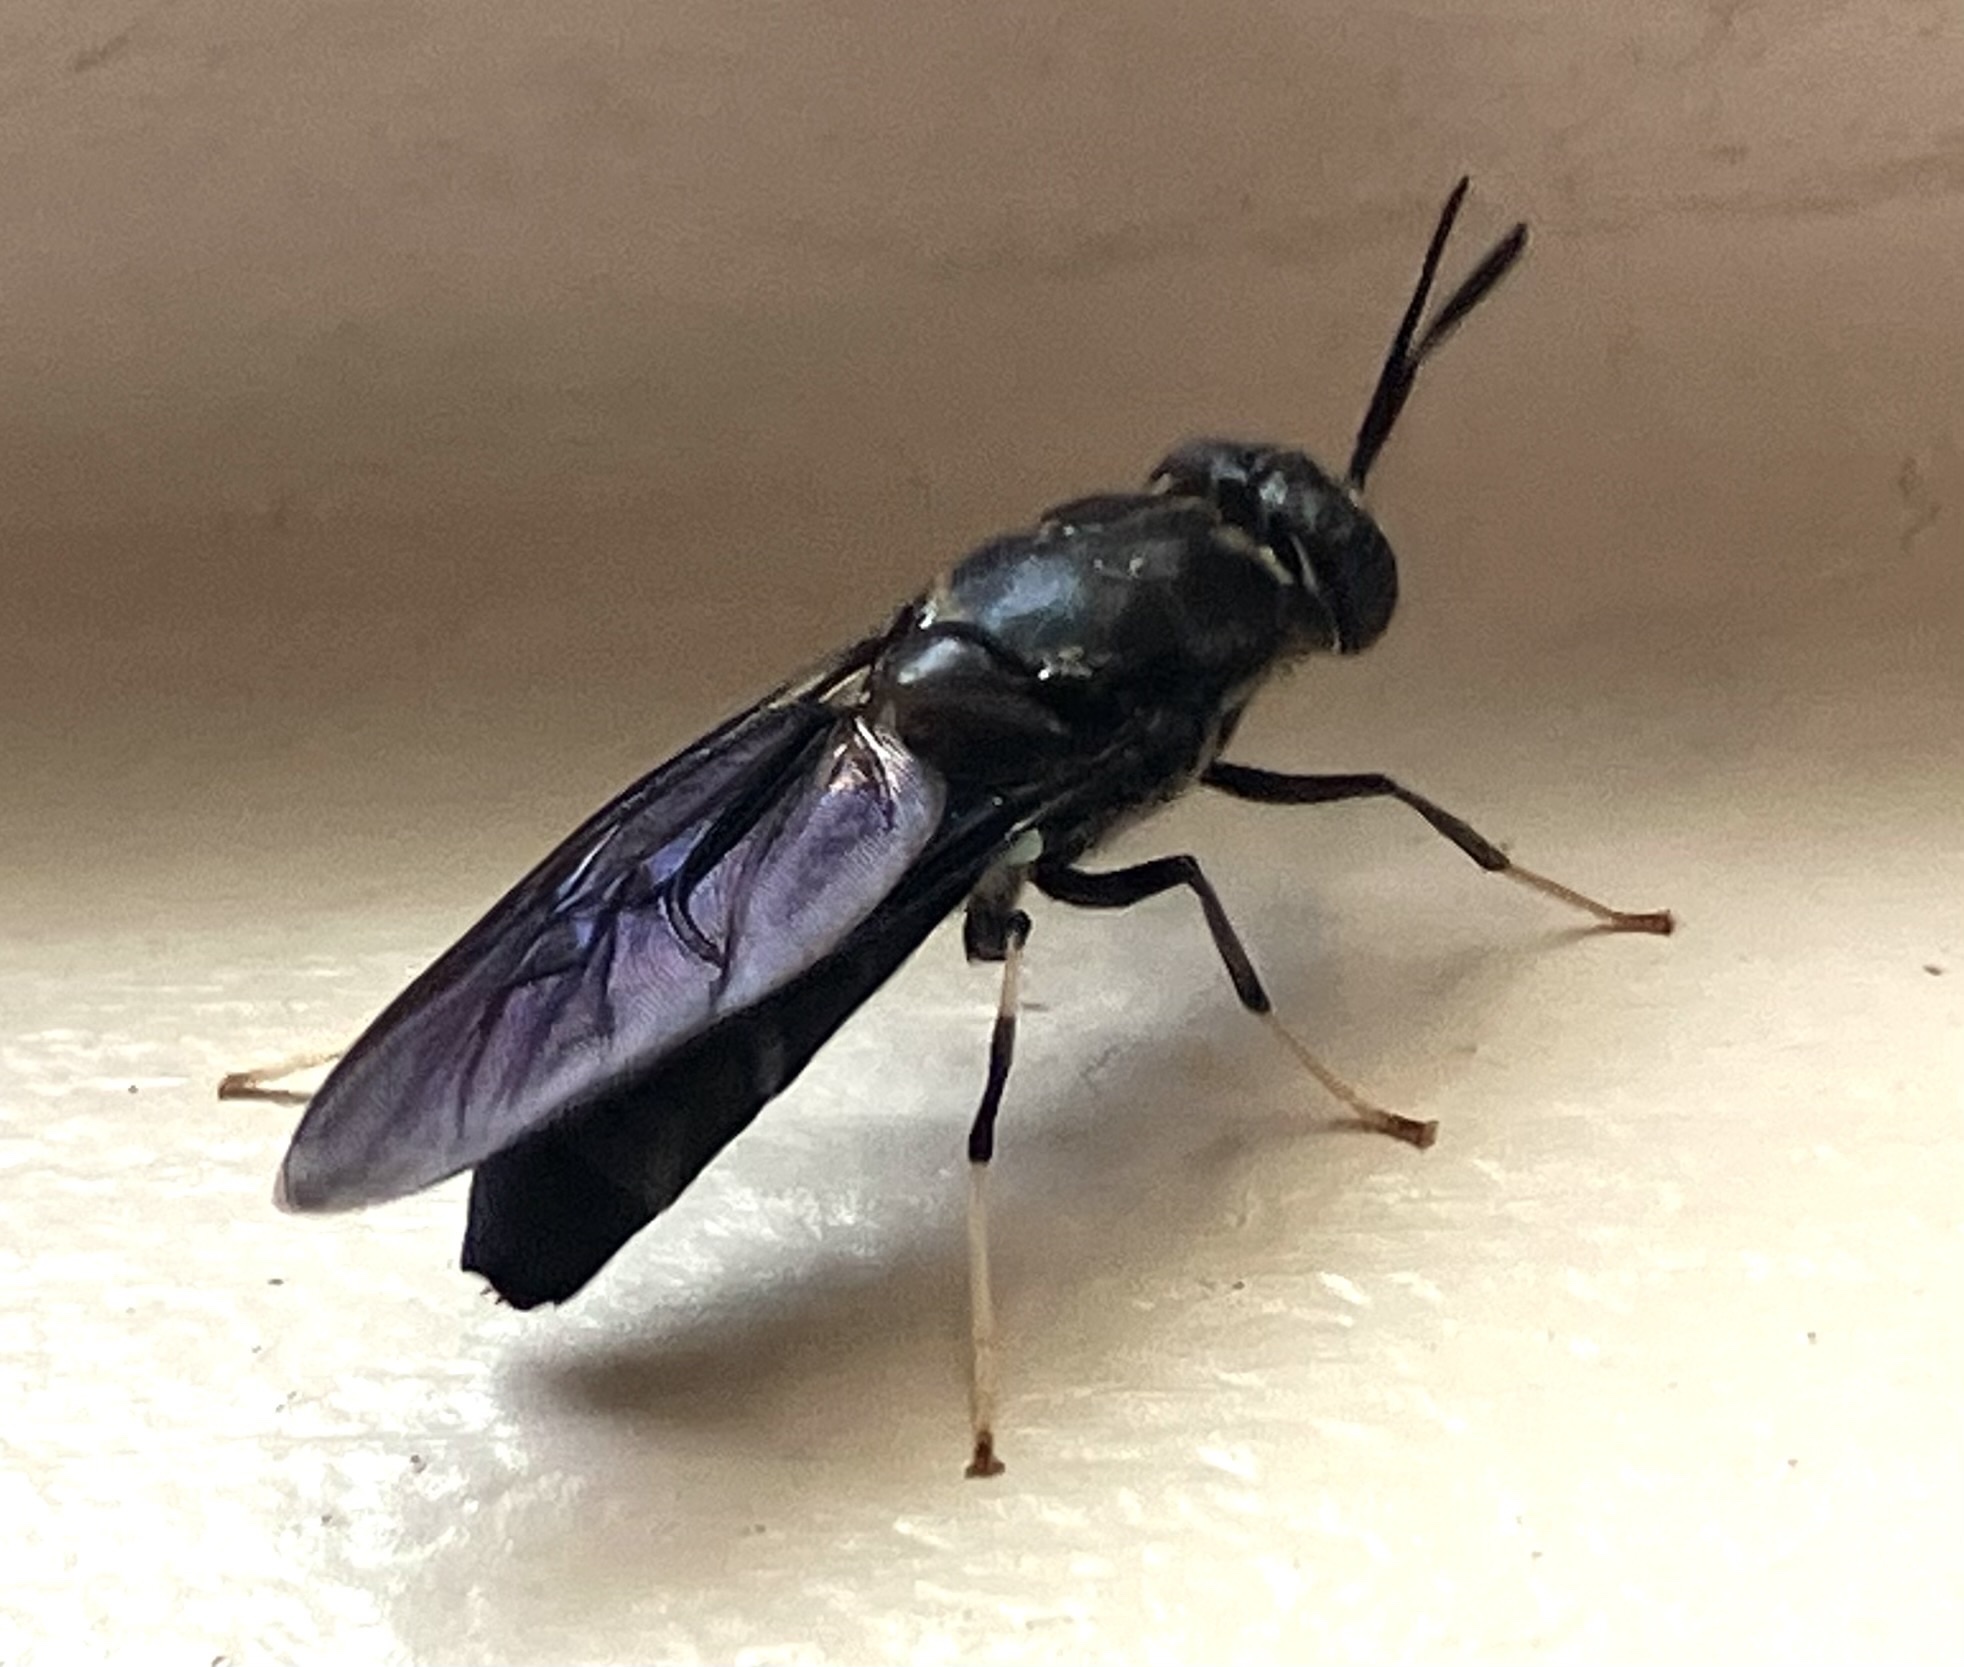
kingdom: Animalia
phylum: Arthropoda
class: Insecta
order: Diptera
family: Stratiomyidae
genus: Hermetia
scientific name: Hermetia illucens
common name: Black soldier fly
